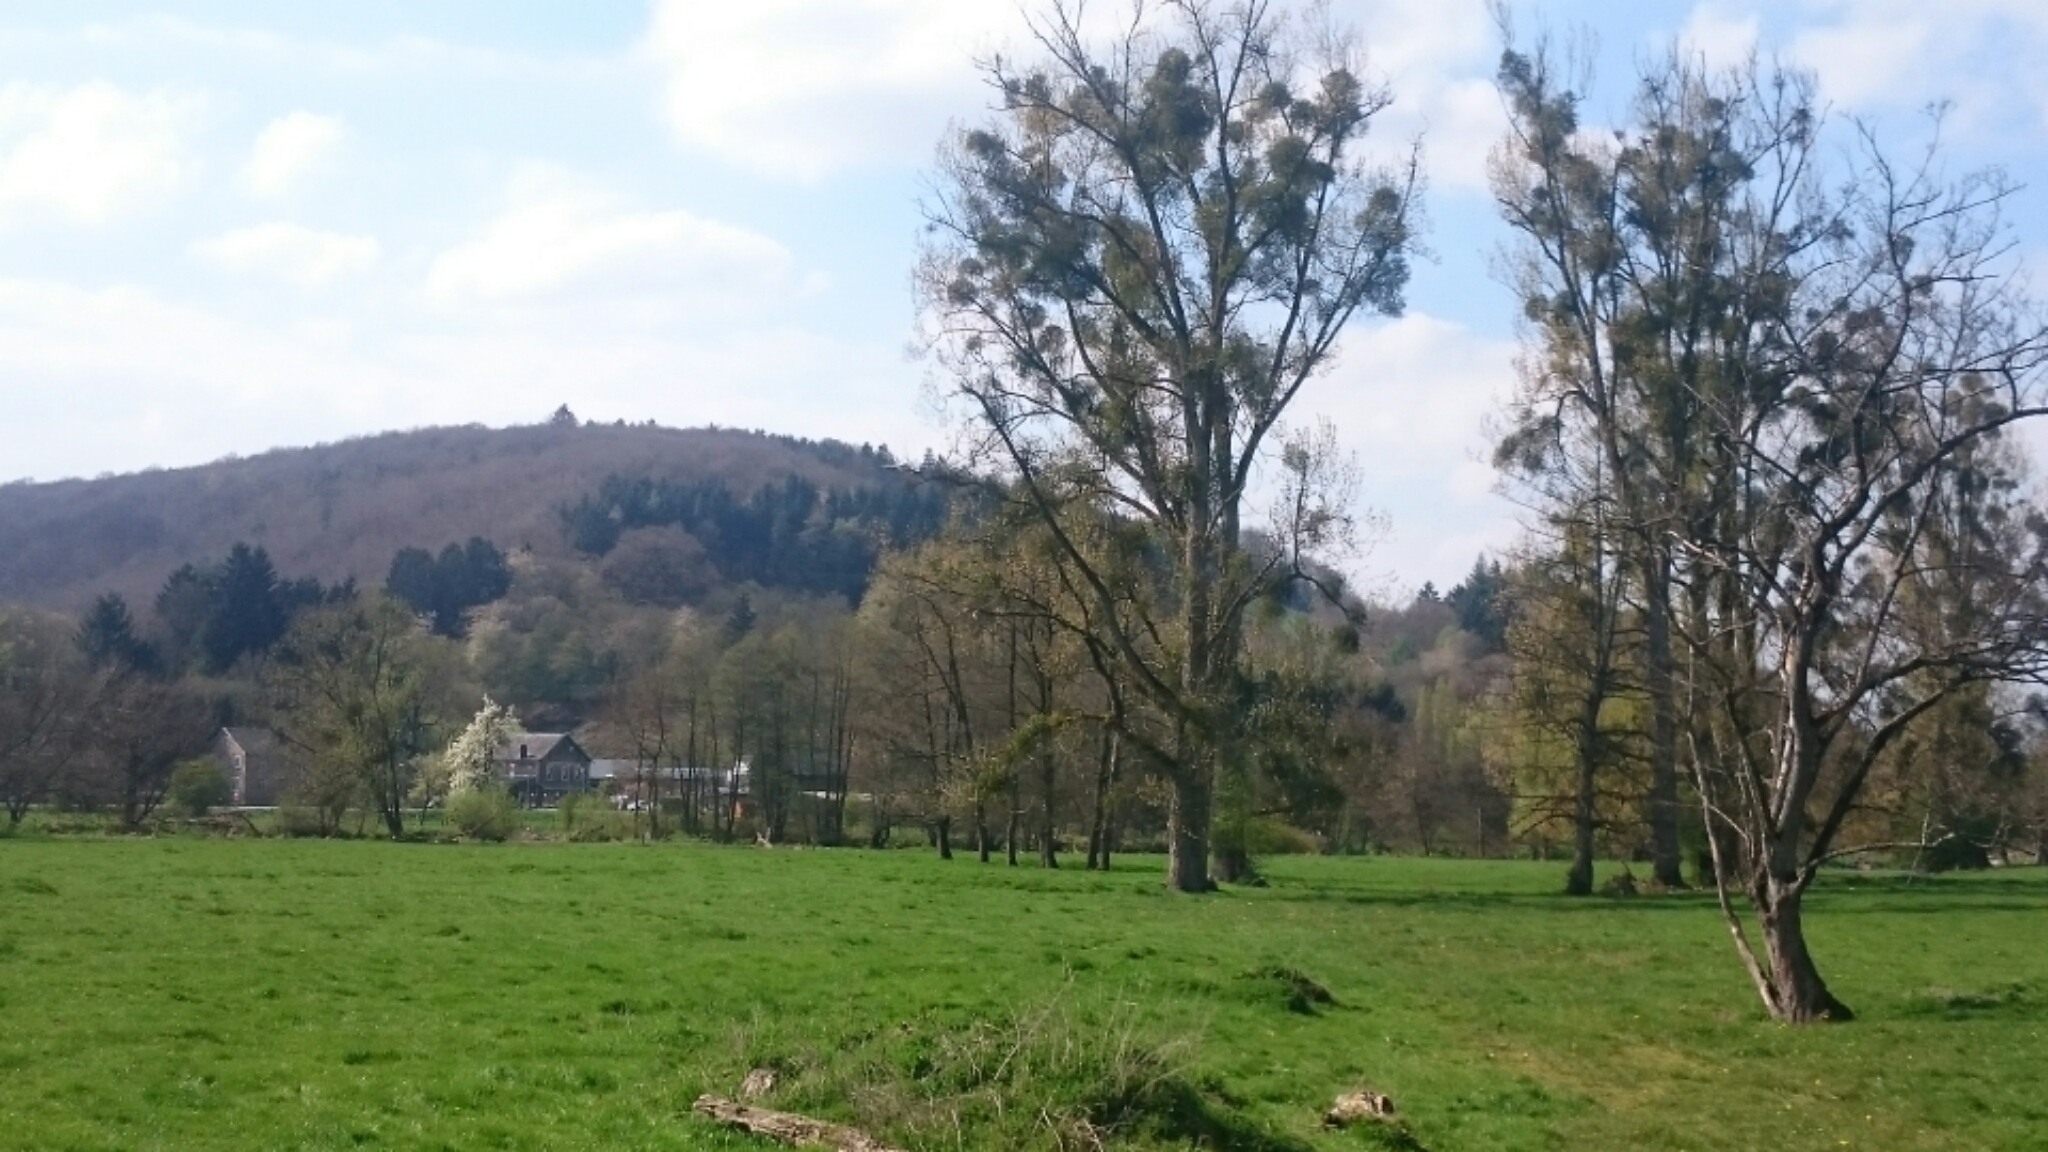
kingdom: Plantae
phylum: Tracheophyta
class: Magnoliopsida
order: Santalales
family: Viscaceae
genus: Viscum
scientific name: Viscum album
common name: Mistletoe
